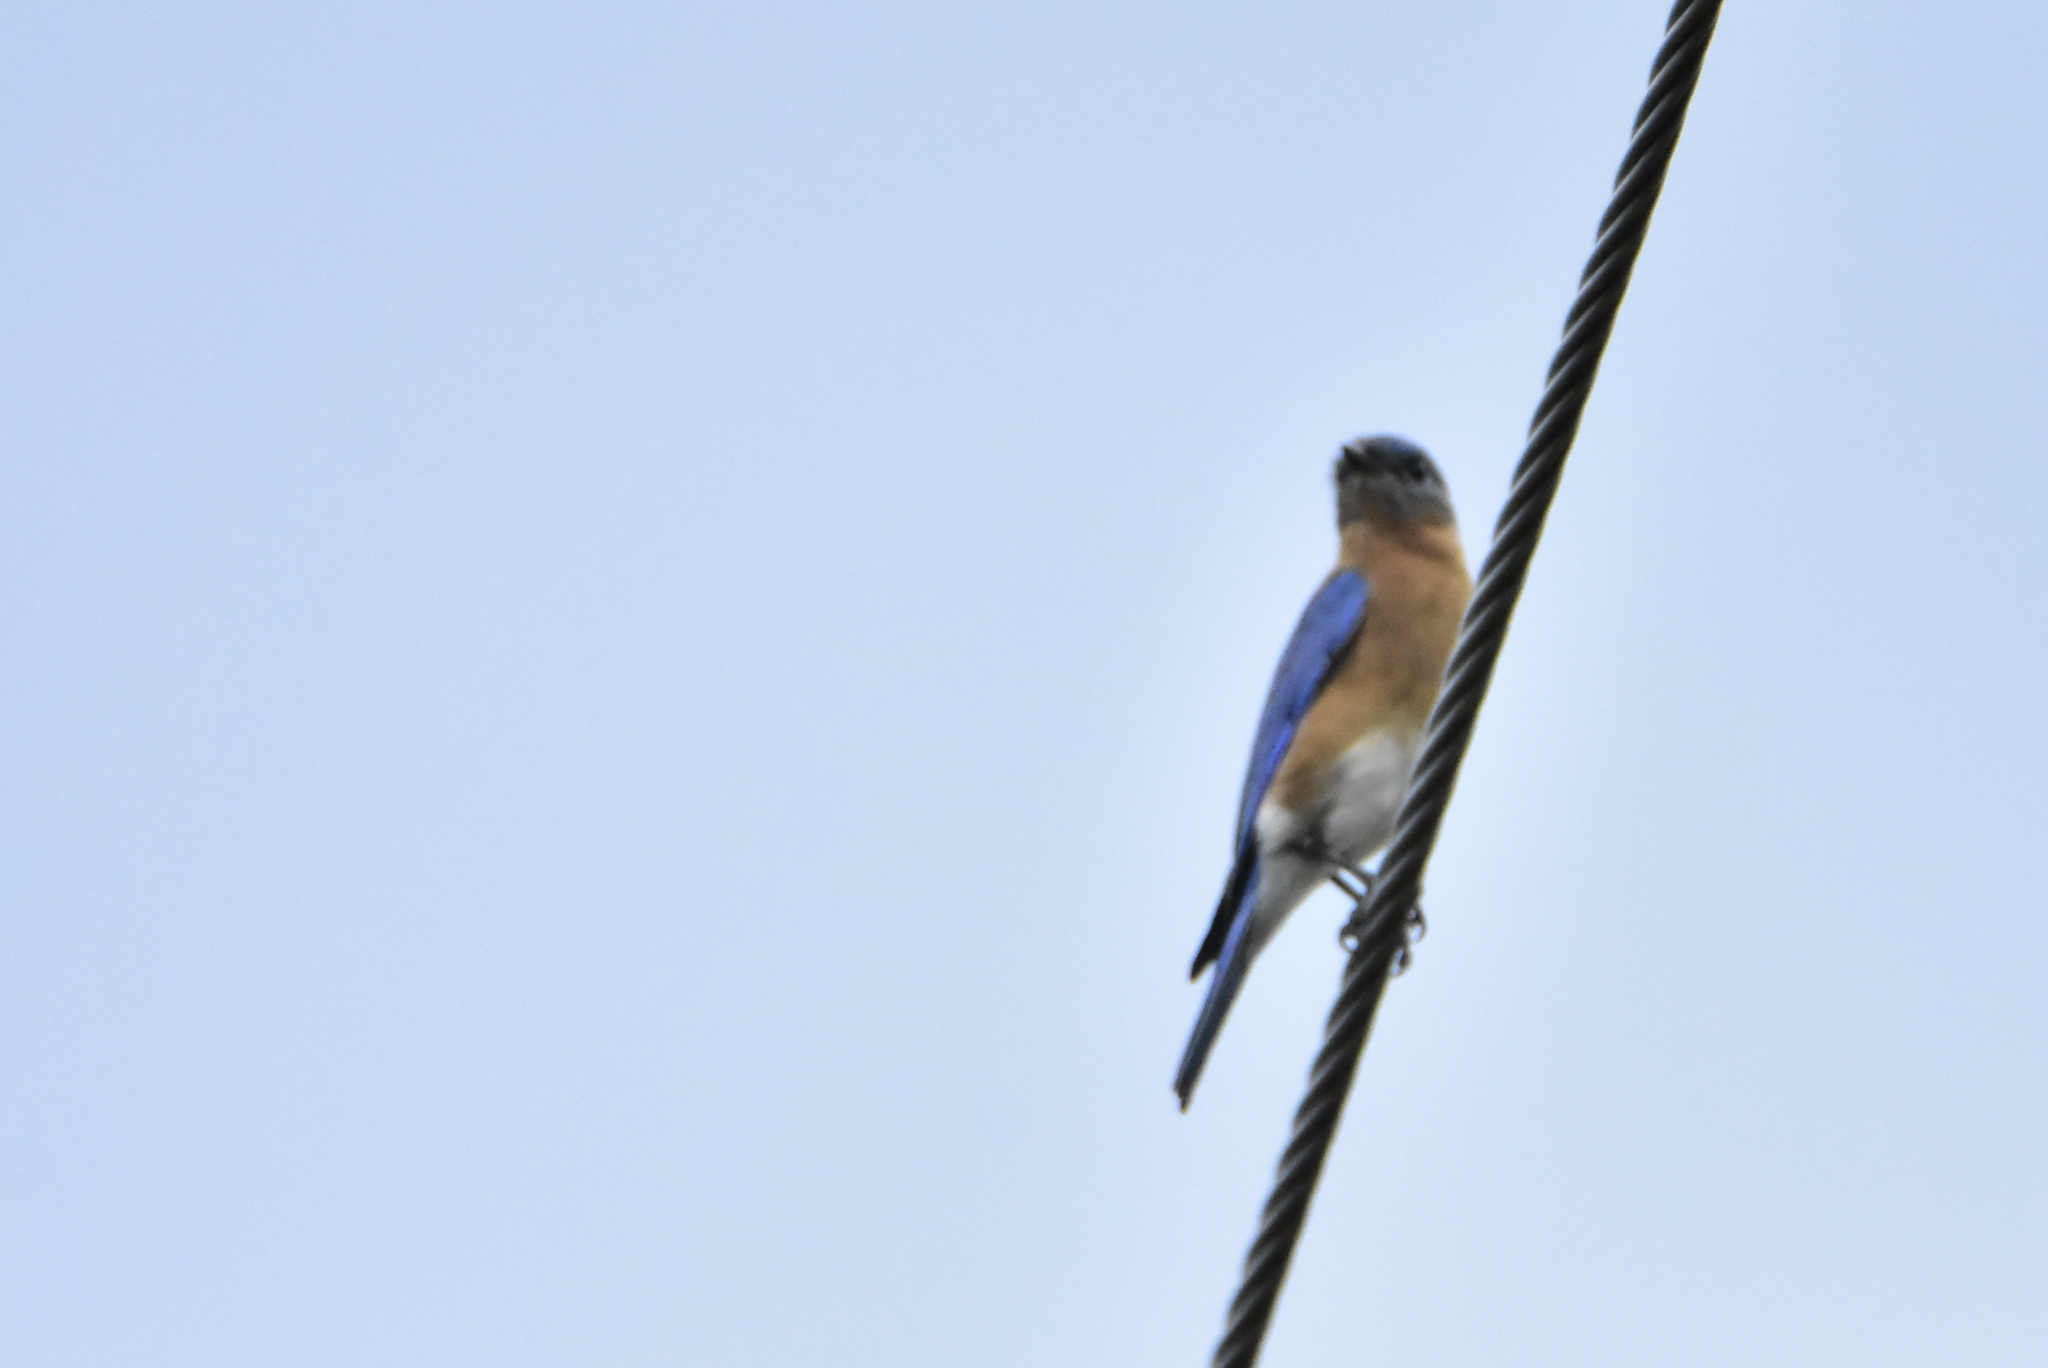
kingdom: Animalia
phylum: Chordata
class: Aves
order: Passeriformes
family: Turdidae
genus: Sialia
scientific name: Sialia sialis
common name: Eastern bluebird
